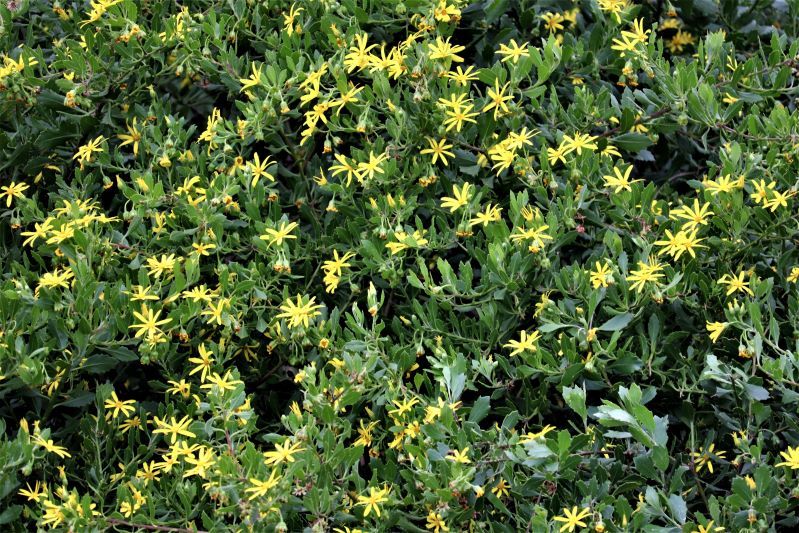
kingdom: Plantae
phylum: Tracheophyta
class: Magnoliopsida
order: Asterales
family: Asteraceae
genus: Osteospermum
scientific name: Osteospermum moniliferum
